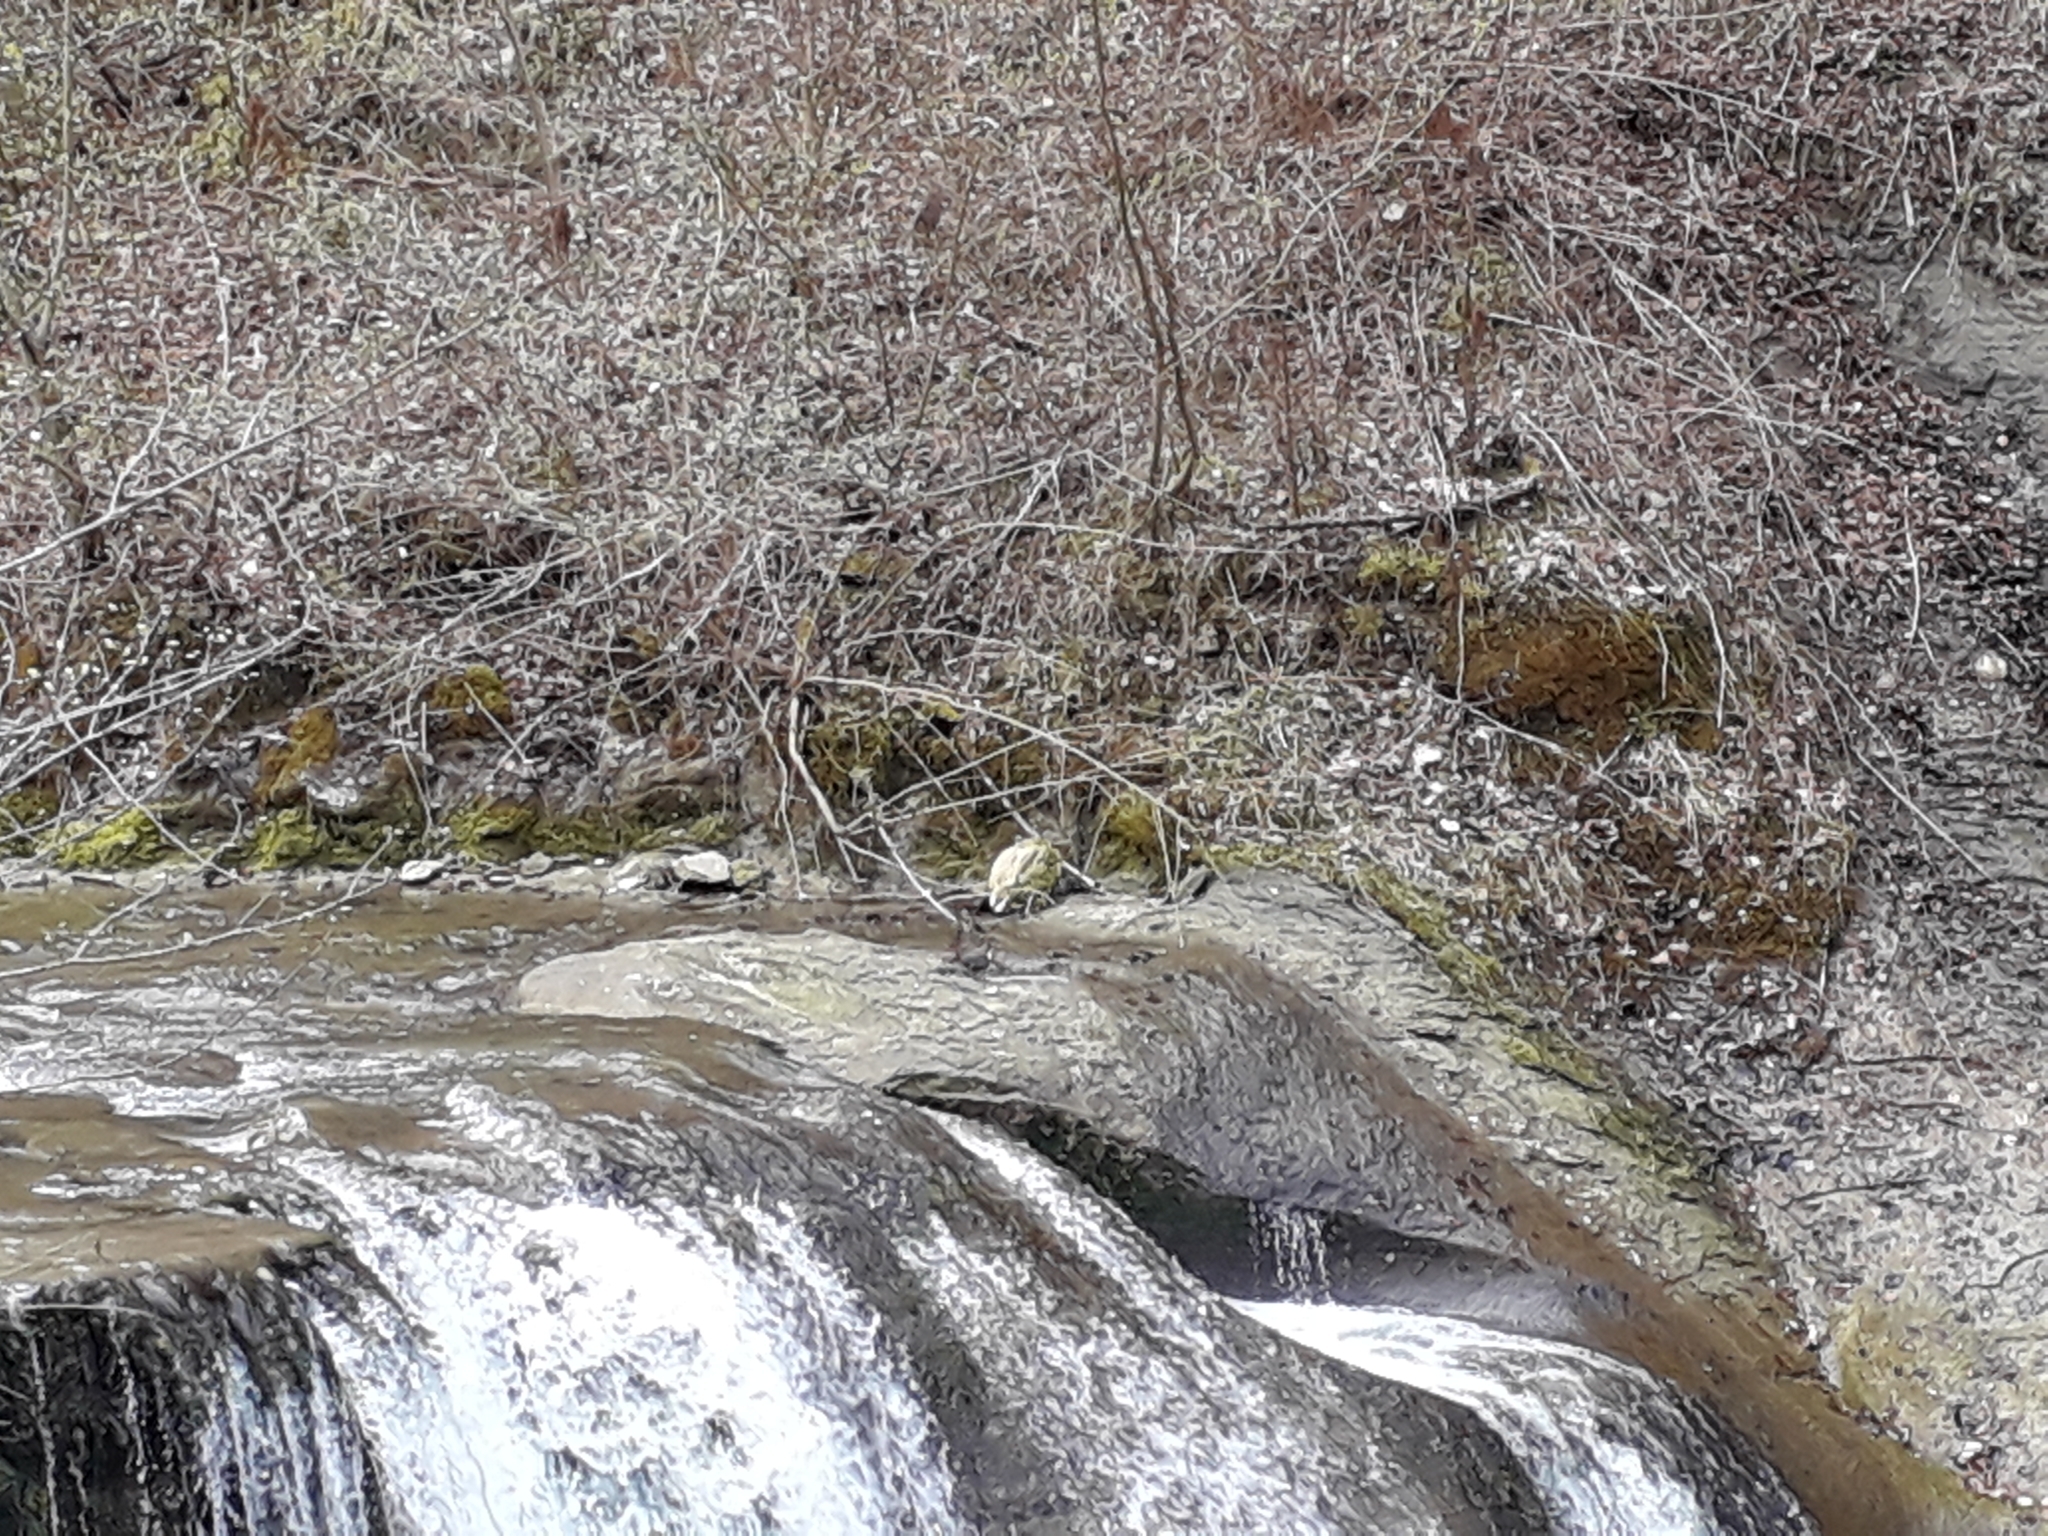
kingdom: Animalia
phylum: Chordata
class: Aves
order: Passeriformes
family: Cinclidae
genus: Cinclus
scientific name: Cinclus cinclus
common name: White-throated dipper
